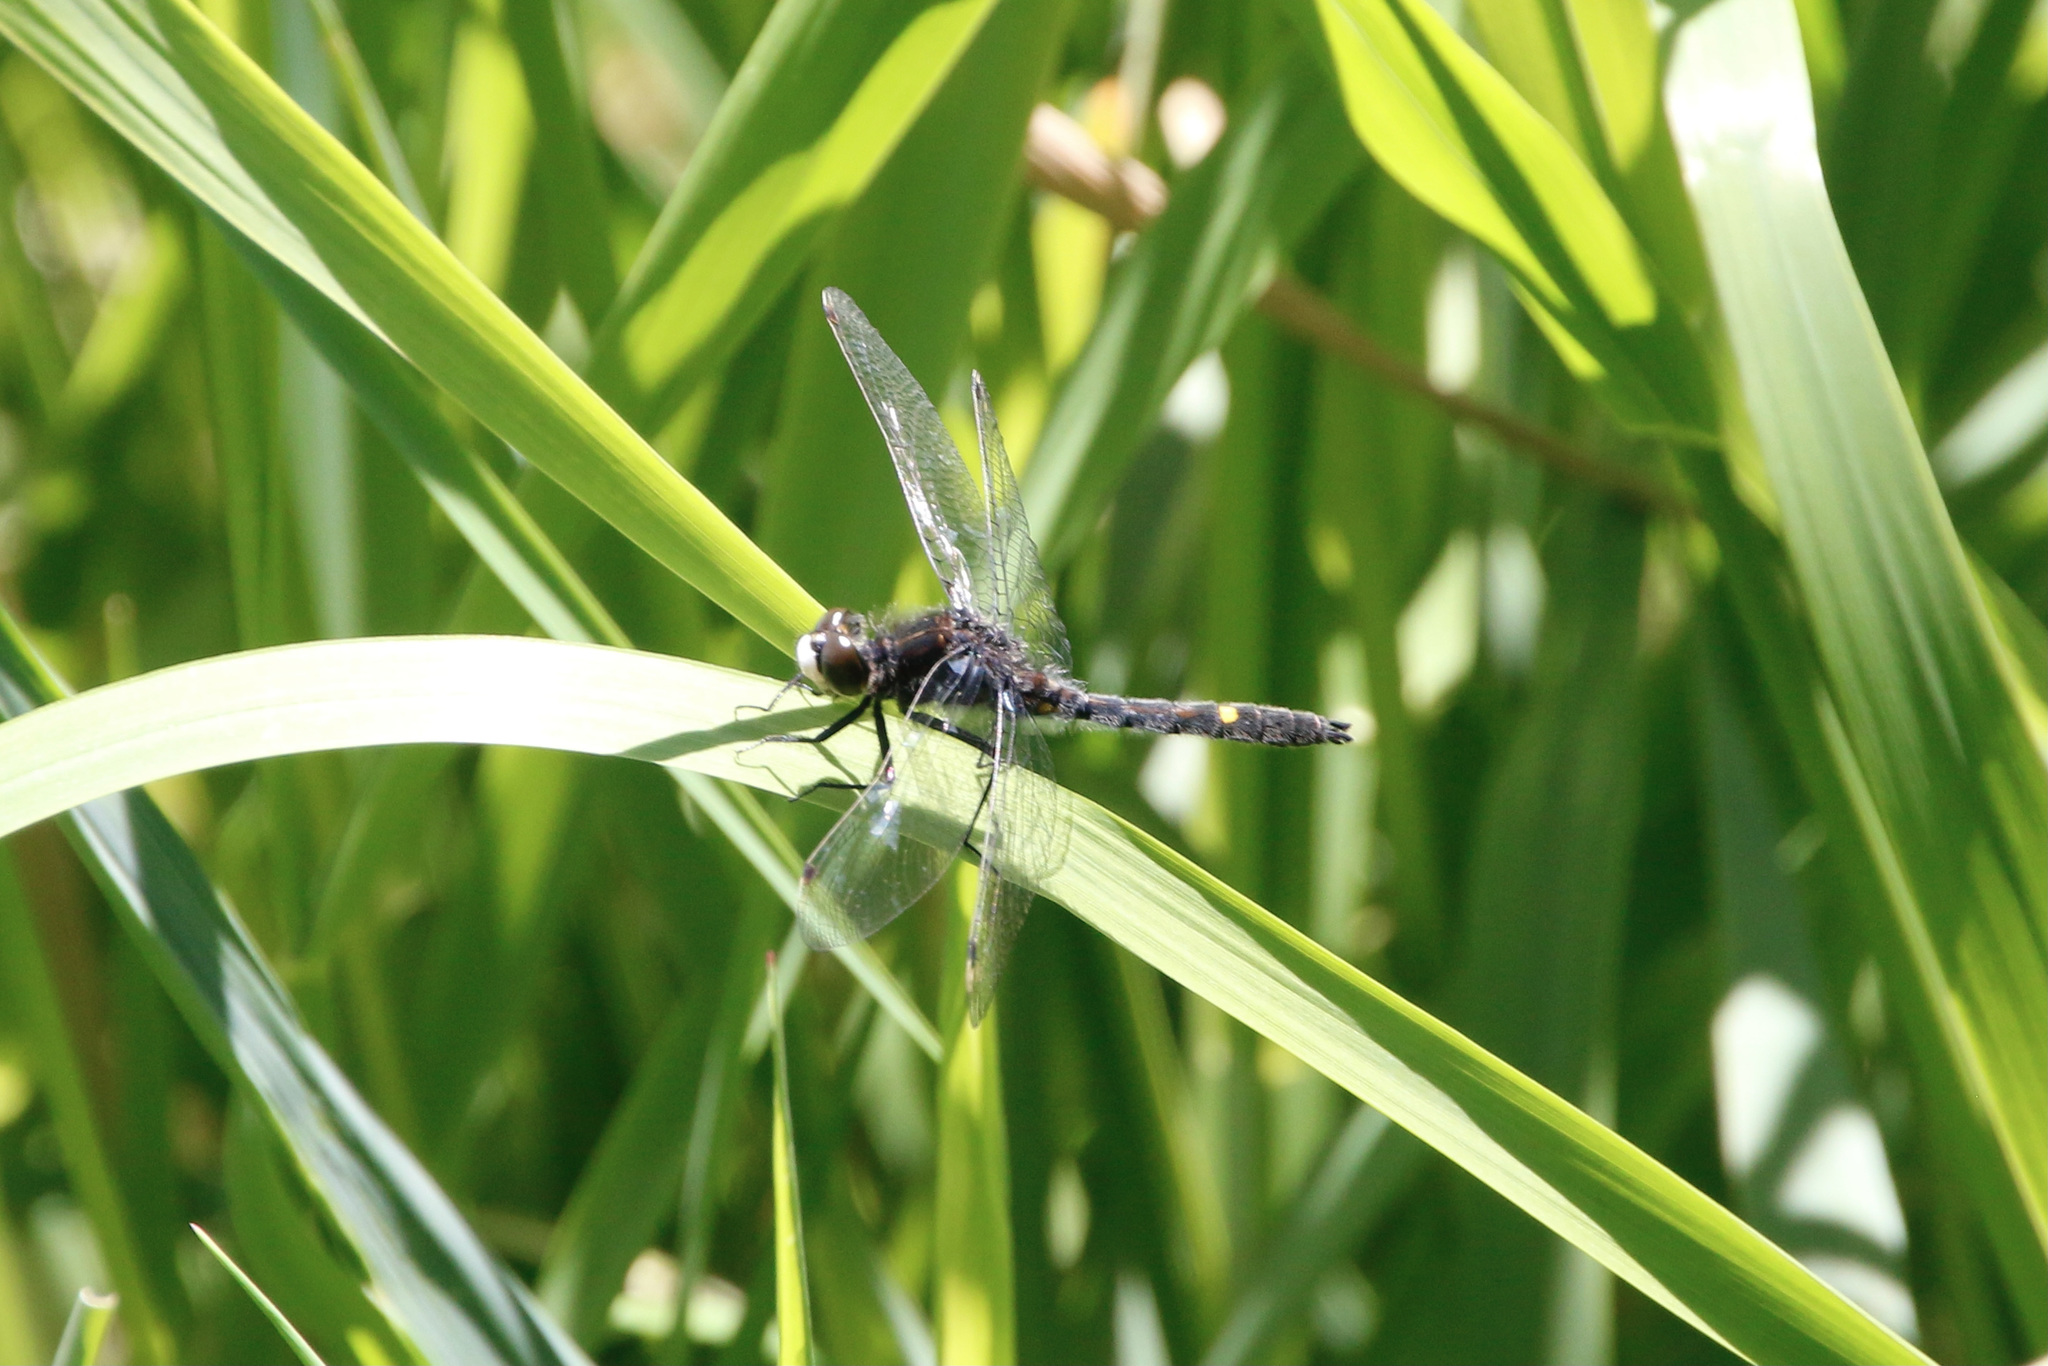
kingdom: Animalia
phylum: Arthropoda
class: Insecta
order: Odonata
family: Libellulidae
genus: Leucorrhinia
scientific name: Leucorrhinia intacta
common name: Dot-tailed whiteface
